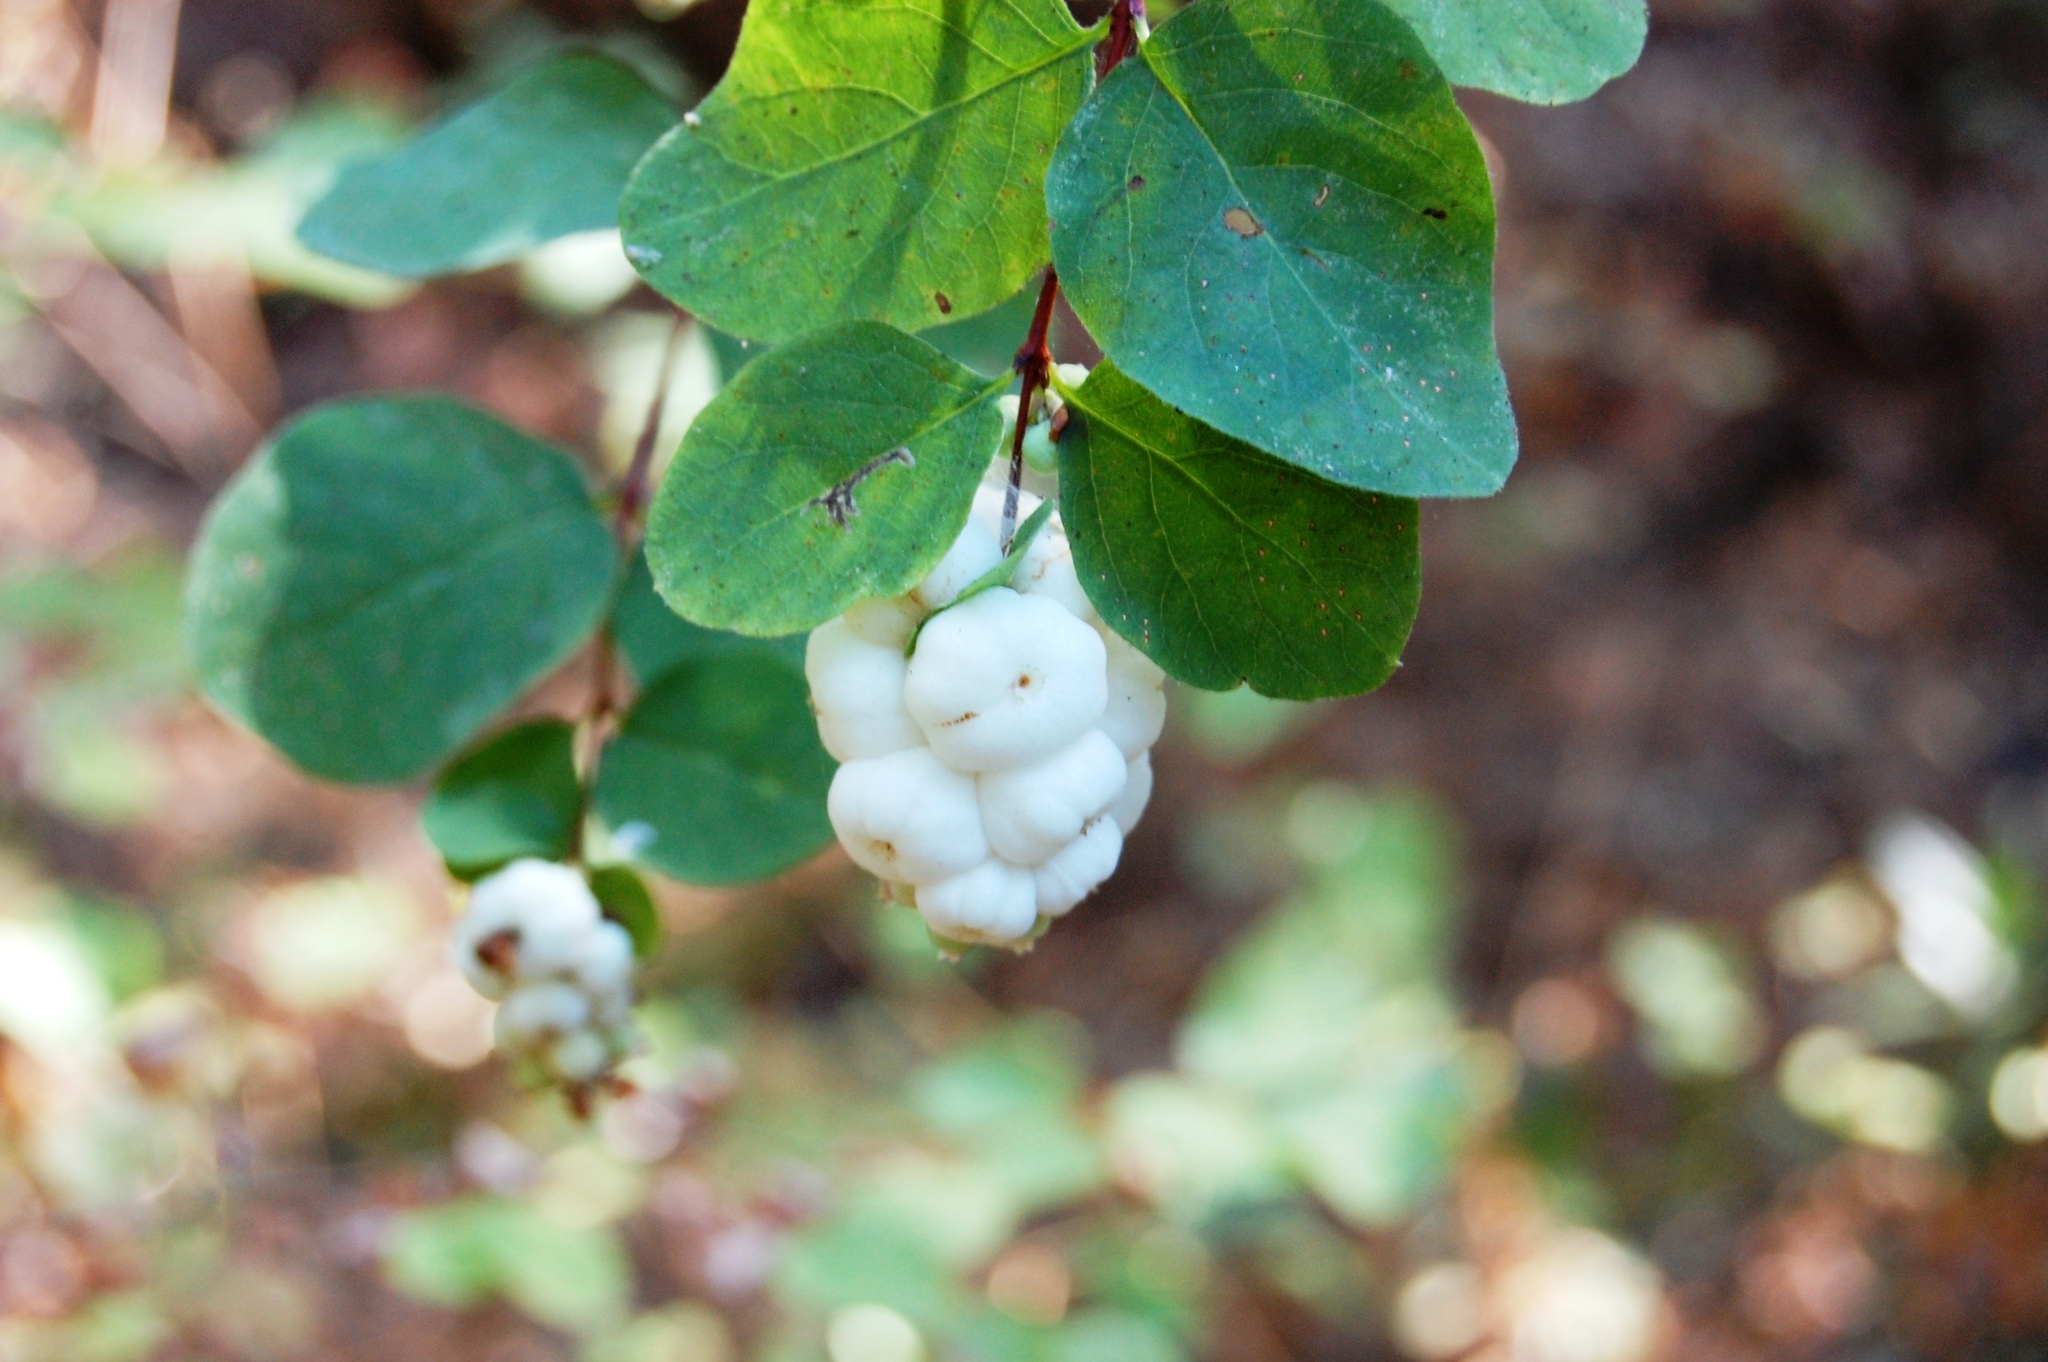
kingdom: Plantae
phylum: Tracheophyta
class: Magnoliopsida
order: Dipsacales
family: Caprifoliaceae
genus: Symphoricarpos
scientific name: Symphoricarpos albus
